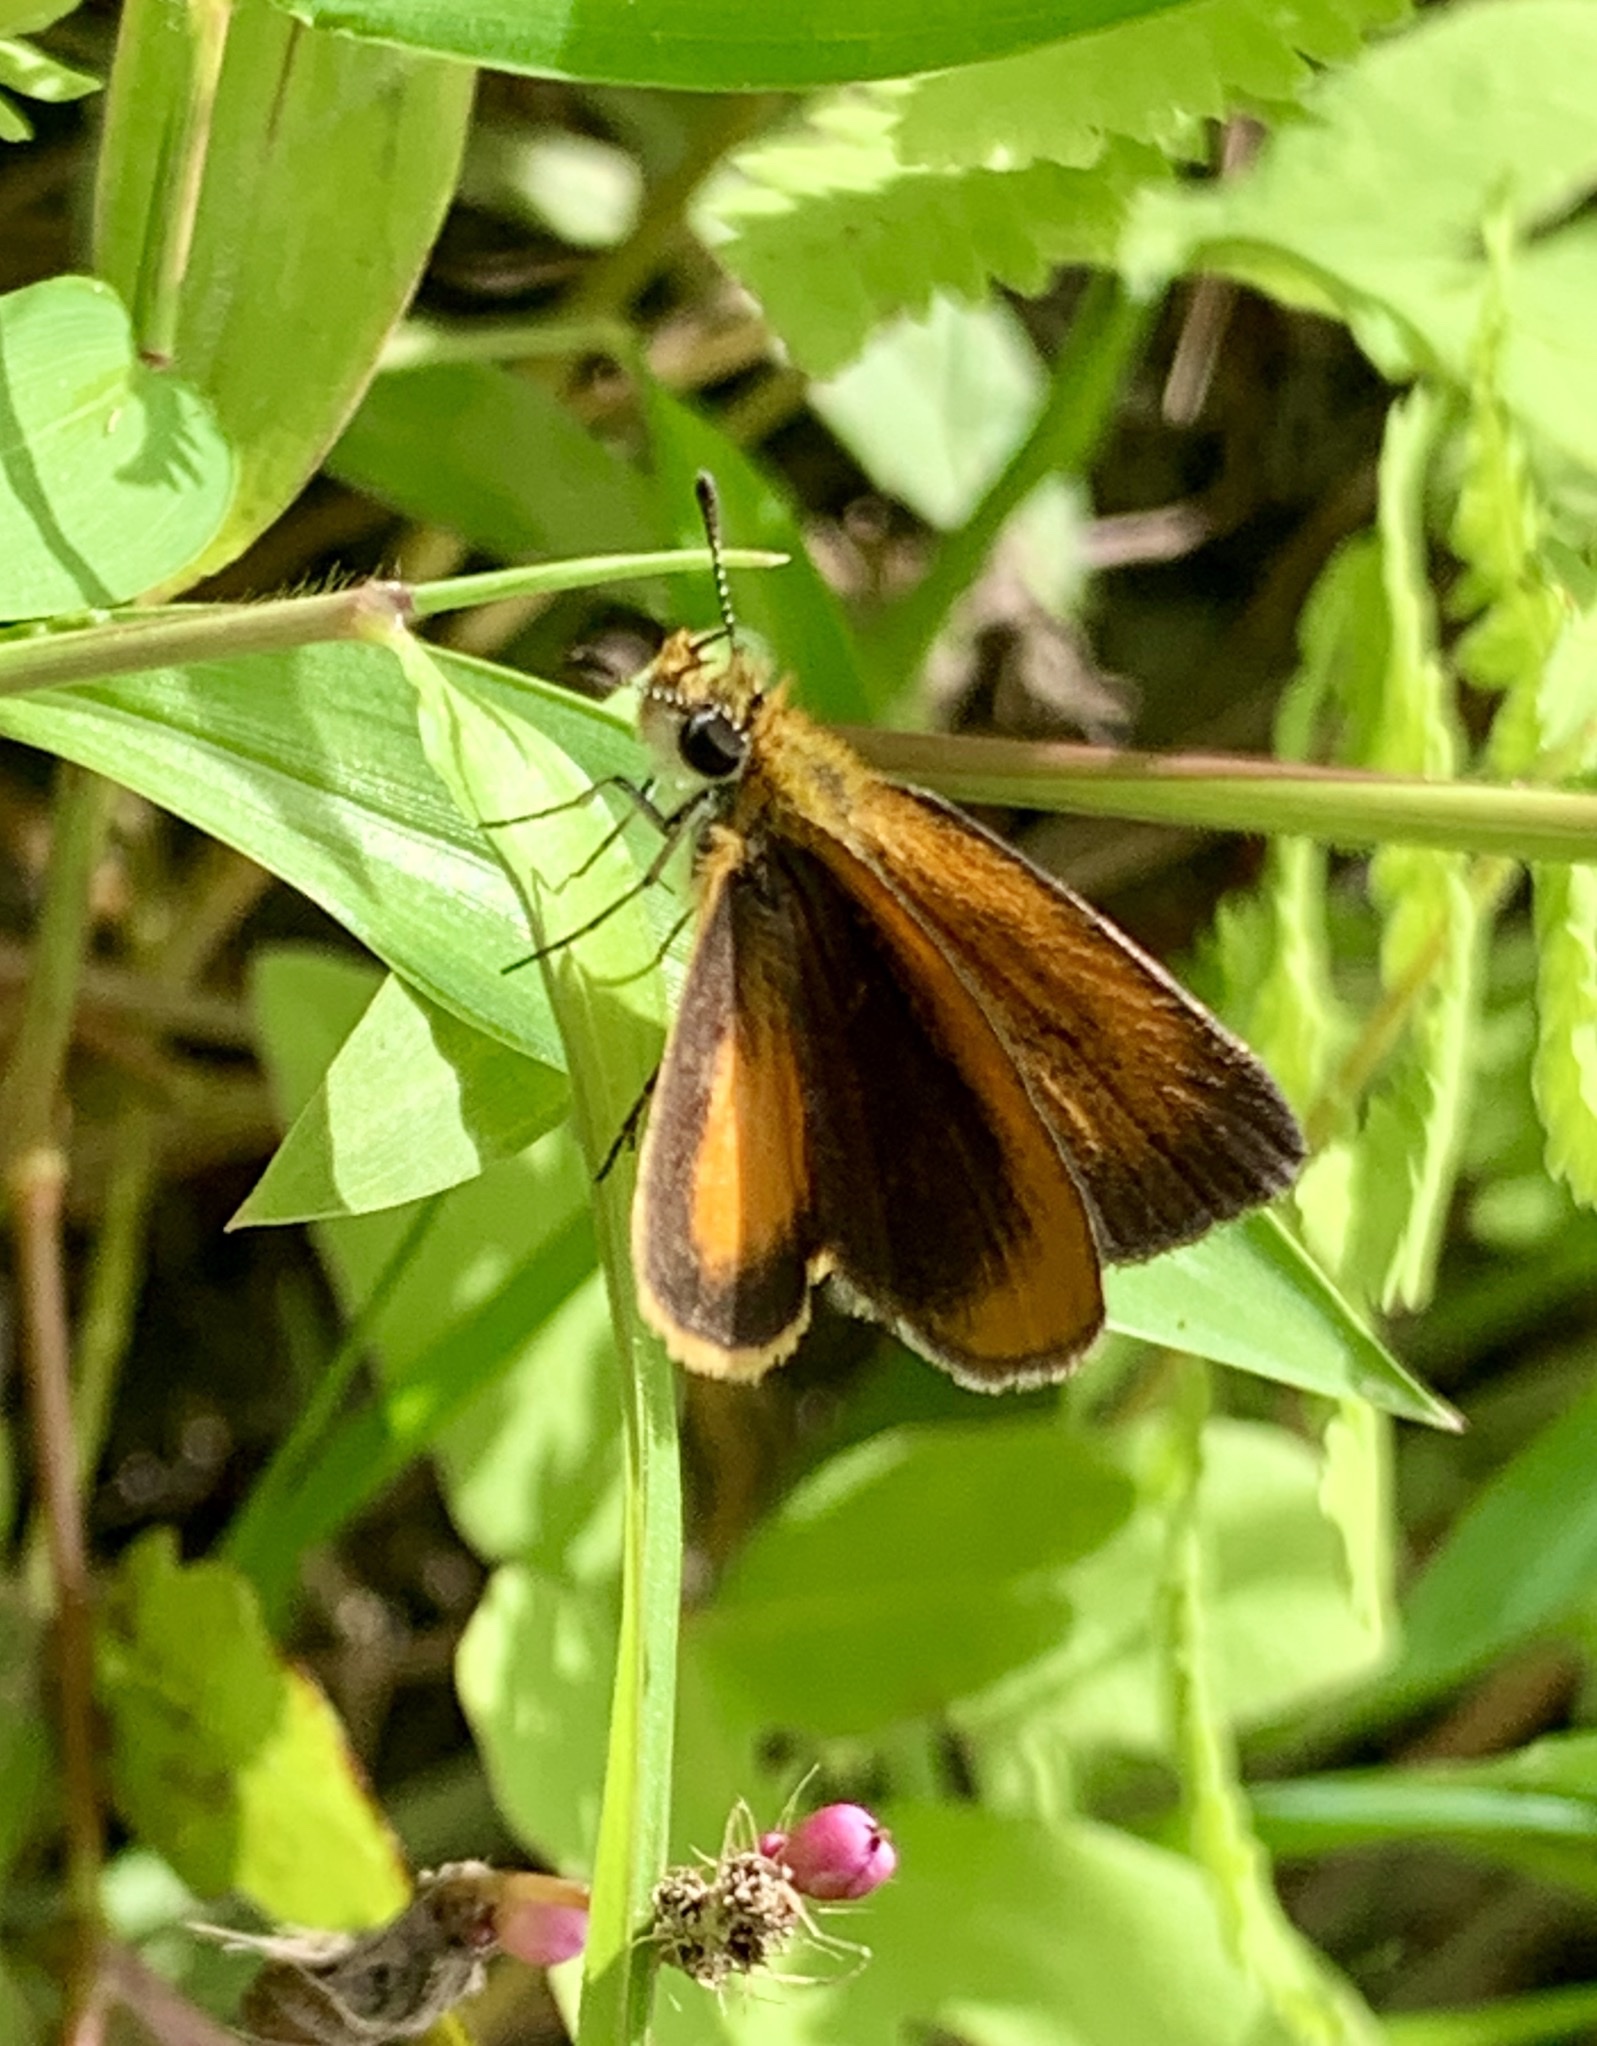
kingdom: Animalia
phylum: Arthropoda
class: Insecta
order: Lepidoptera
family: Hesperiidae
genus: Ancyloxypha
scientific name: Ancyloxypha numitor
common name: Least skipper
